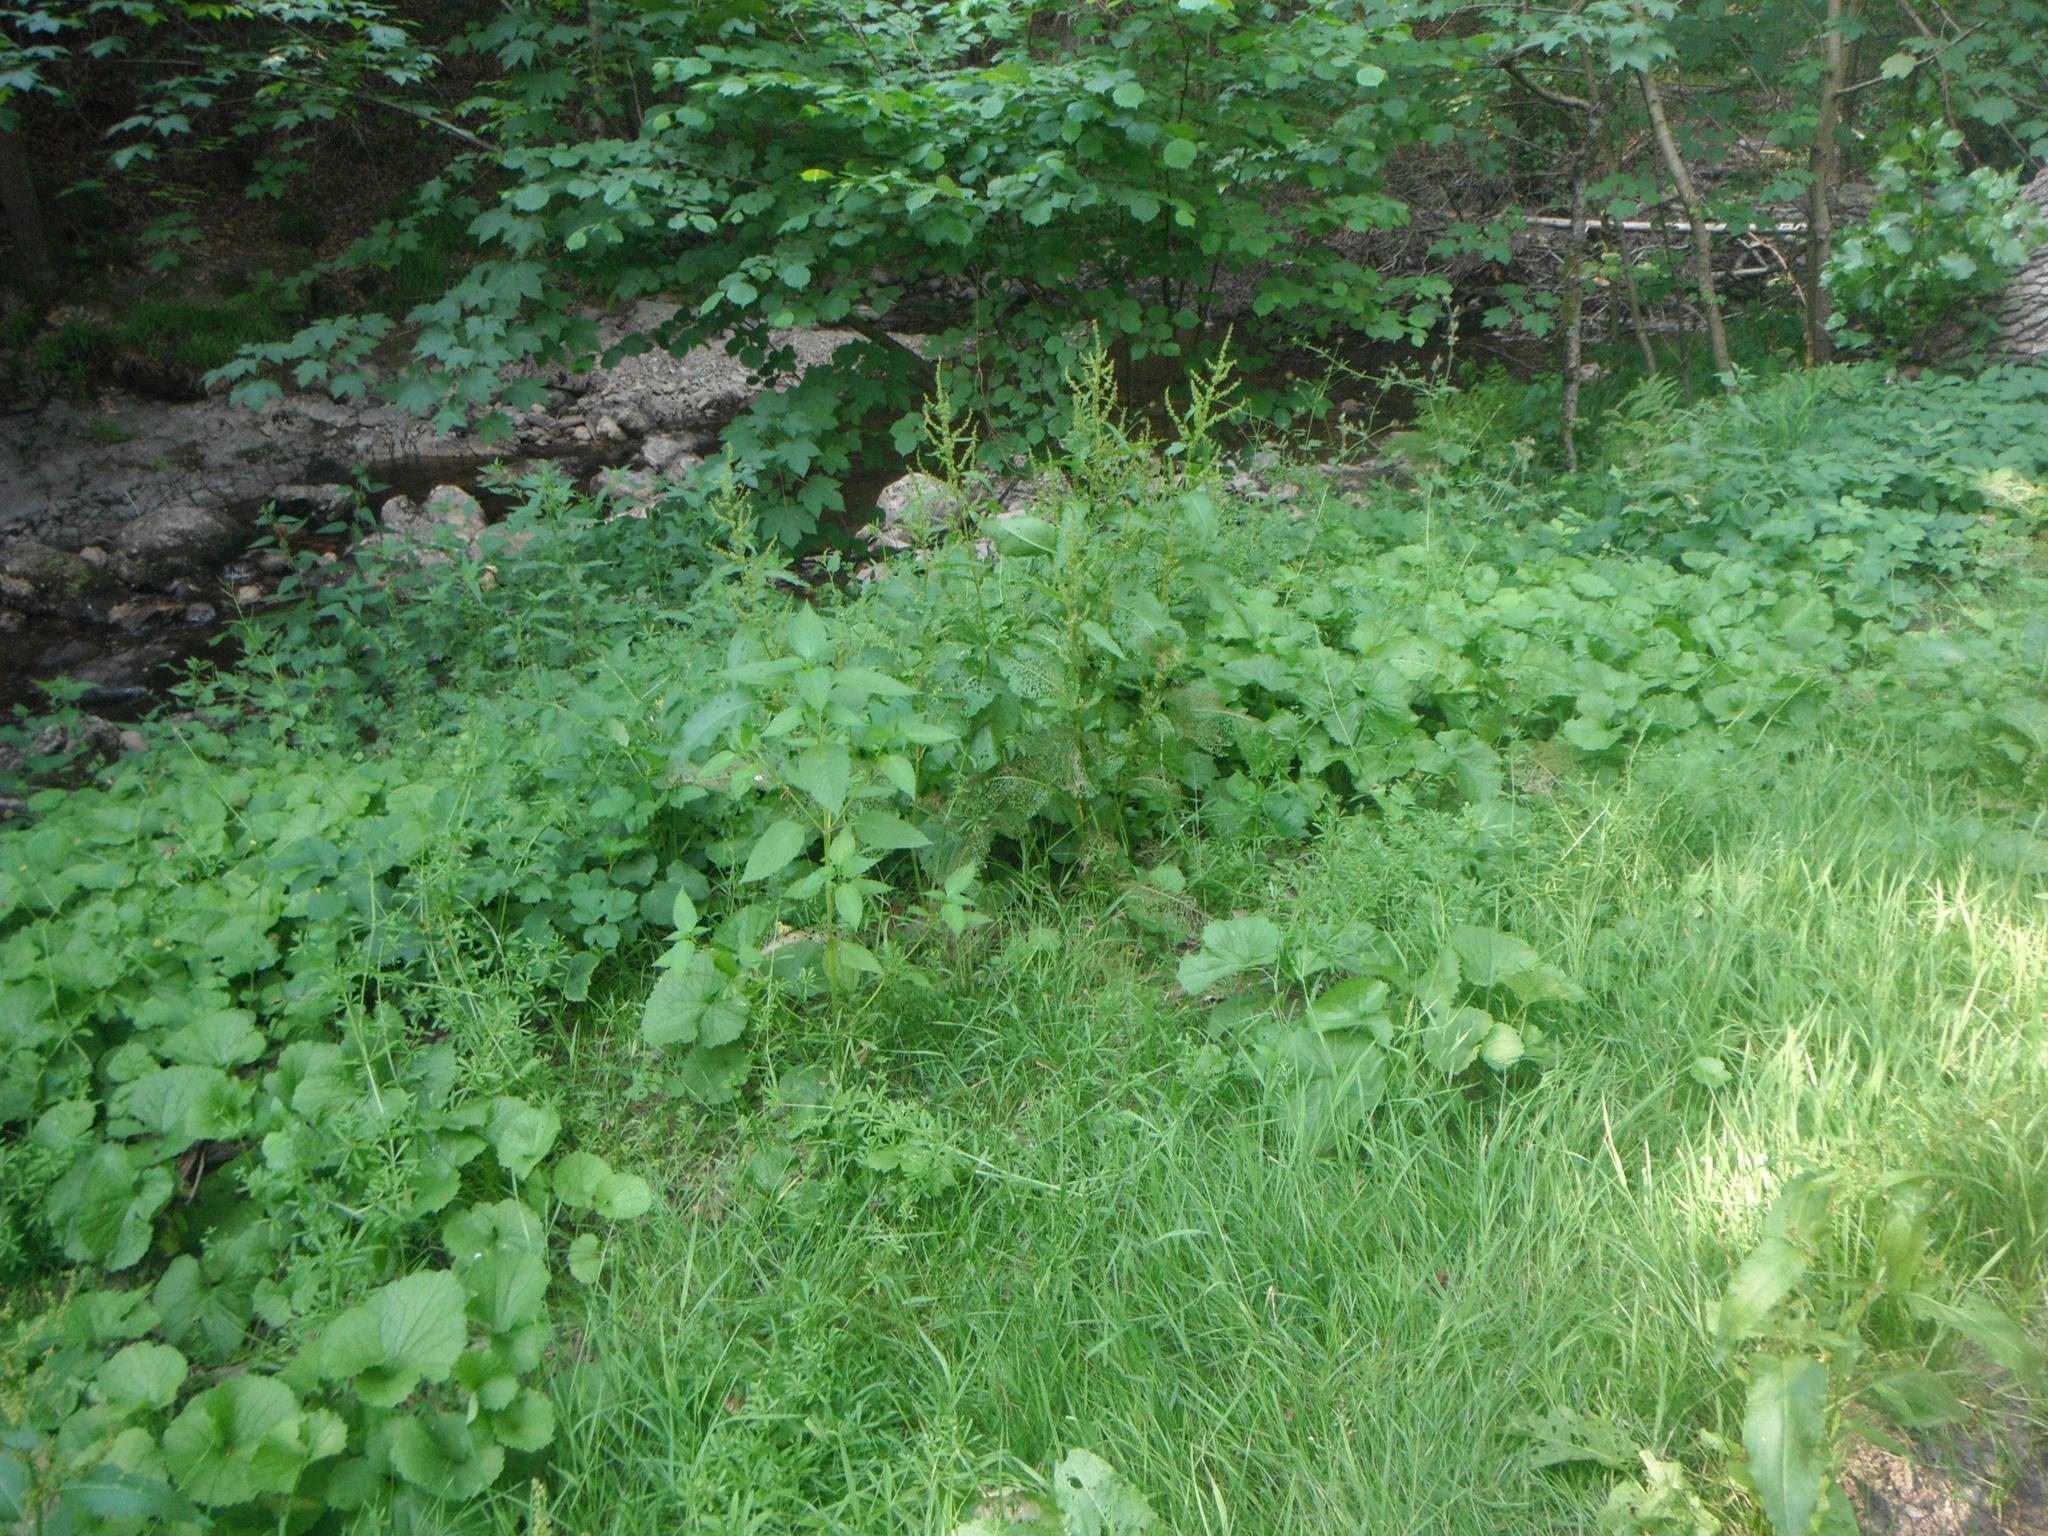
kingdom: Plantae
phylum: Tracheophyta
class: Magnoliopsida
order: Caryophyllales
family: Polygonaceae
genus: Rumex
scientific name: Rumex obtusifolius
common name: Bitter dock
